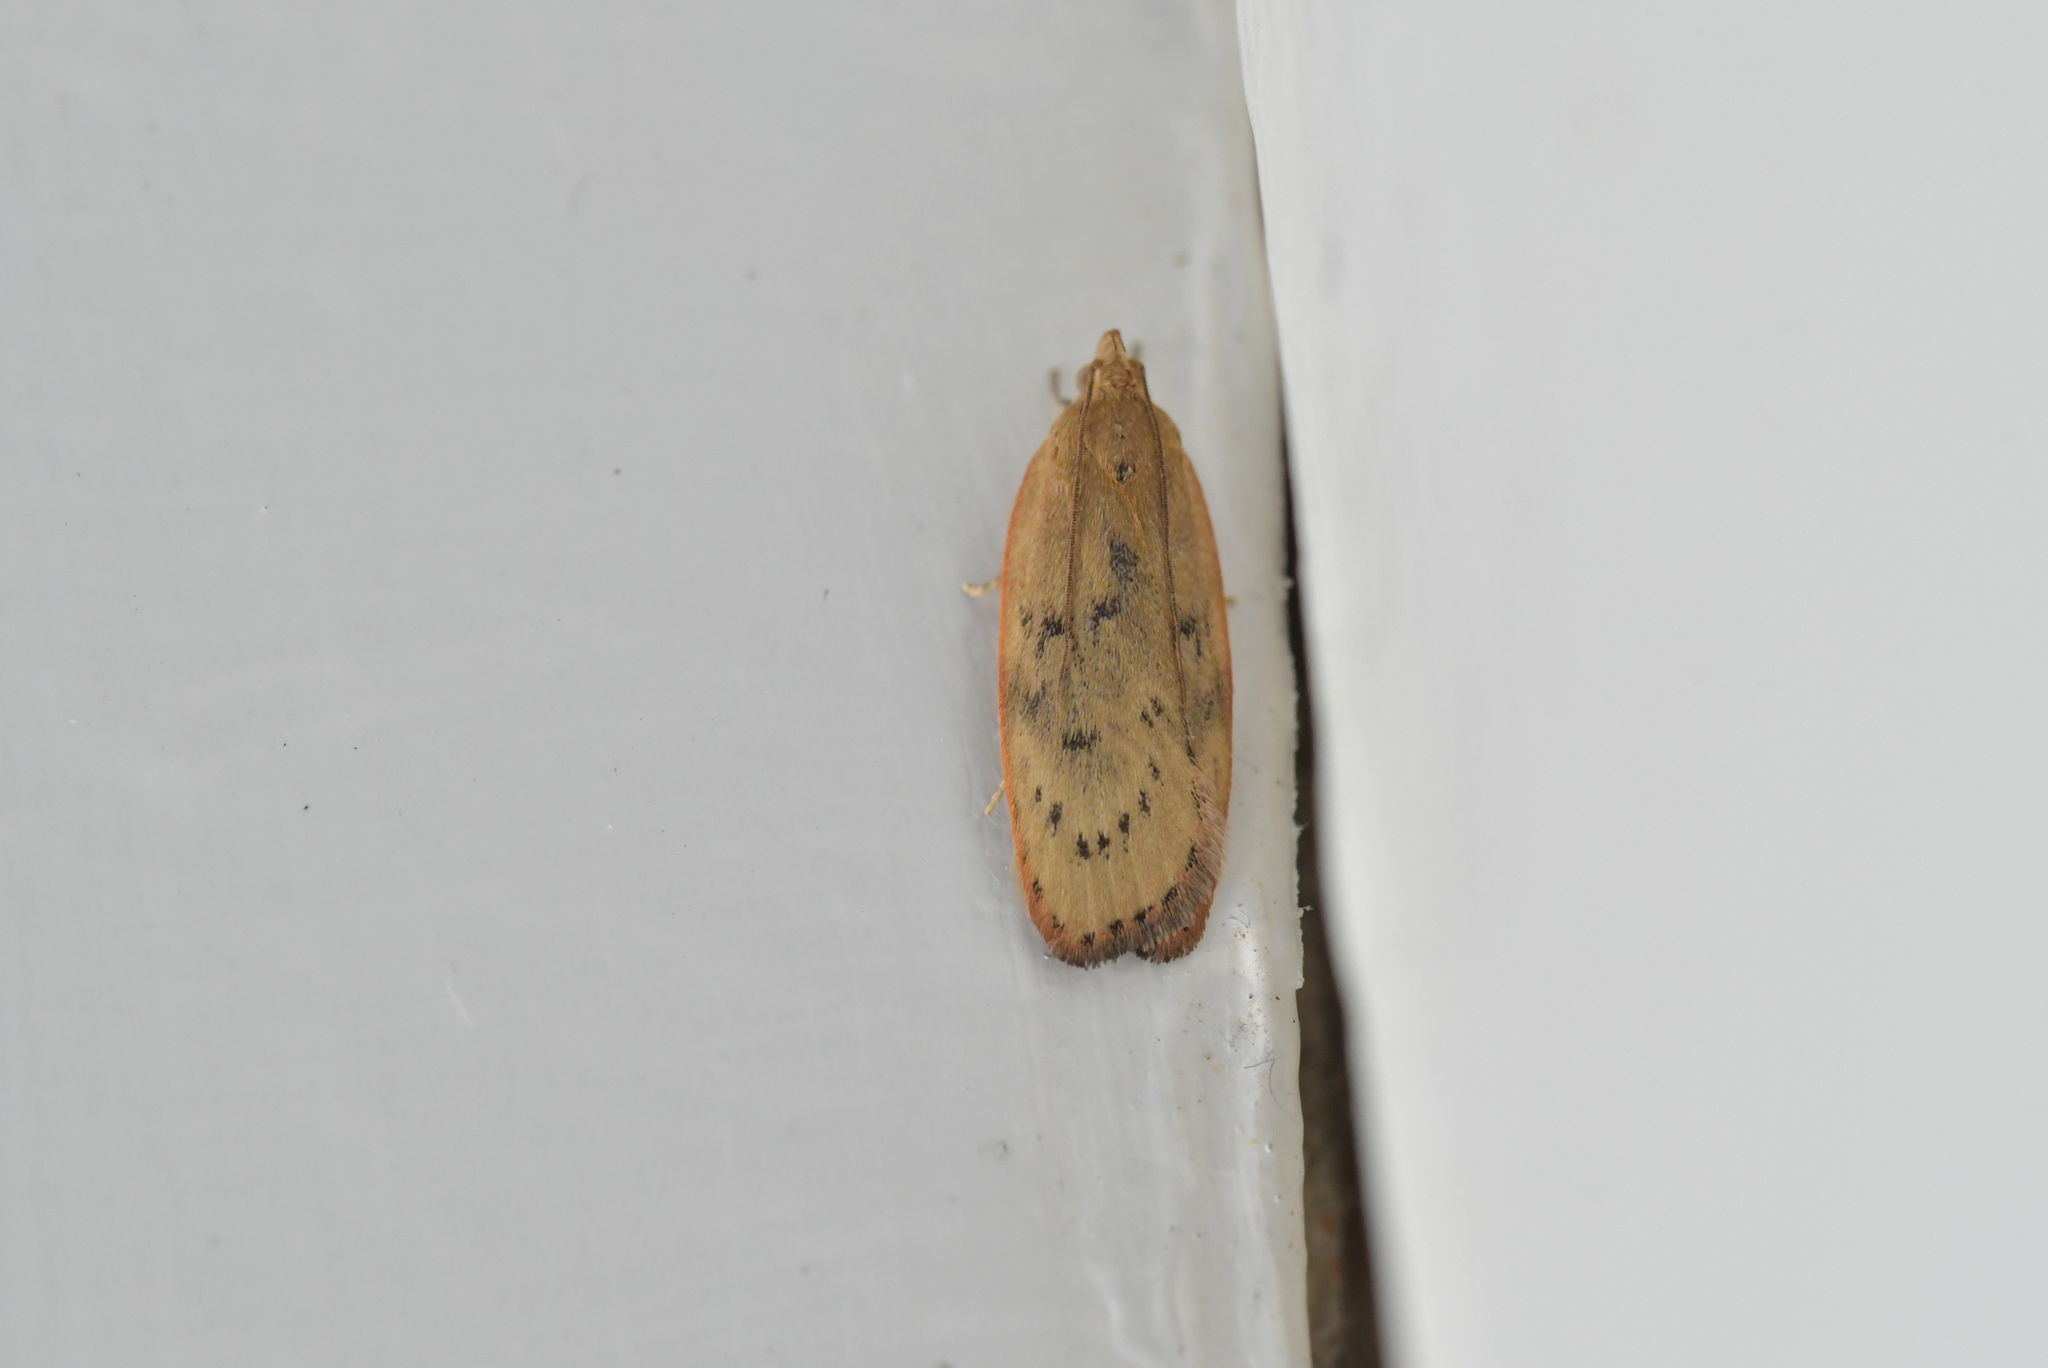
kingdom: Animalia
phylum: Arthropoda
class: Insecta
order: Lepidoptera
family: Depressariidae
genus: Phaeosaces
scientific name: Phaeosaces coarctatella
